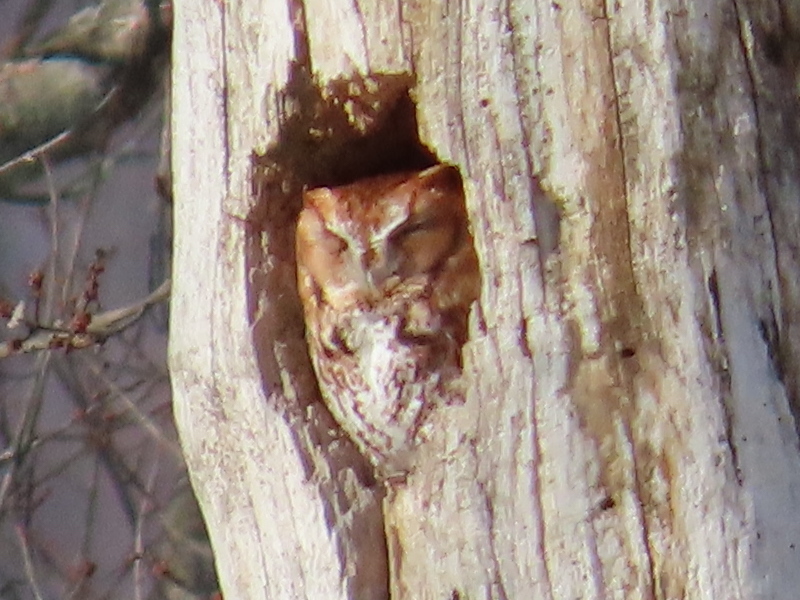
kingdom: Animalia
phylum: Chordata
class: Aves
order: Strigiformes
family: Strigidae
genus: Megascops
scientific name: Megascops asio
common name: Eastern screech-owl
